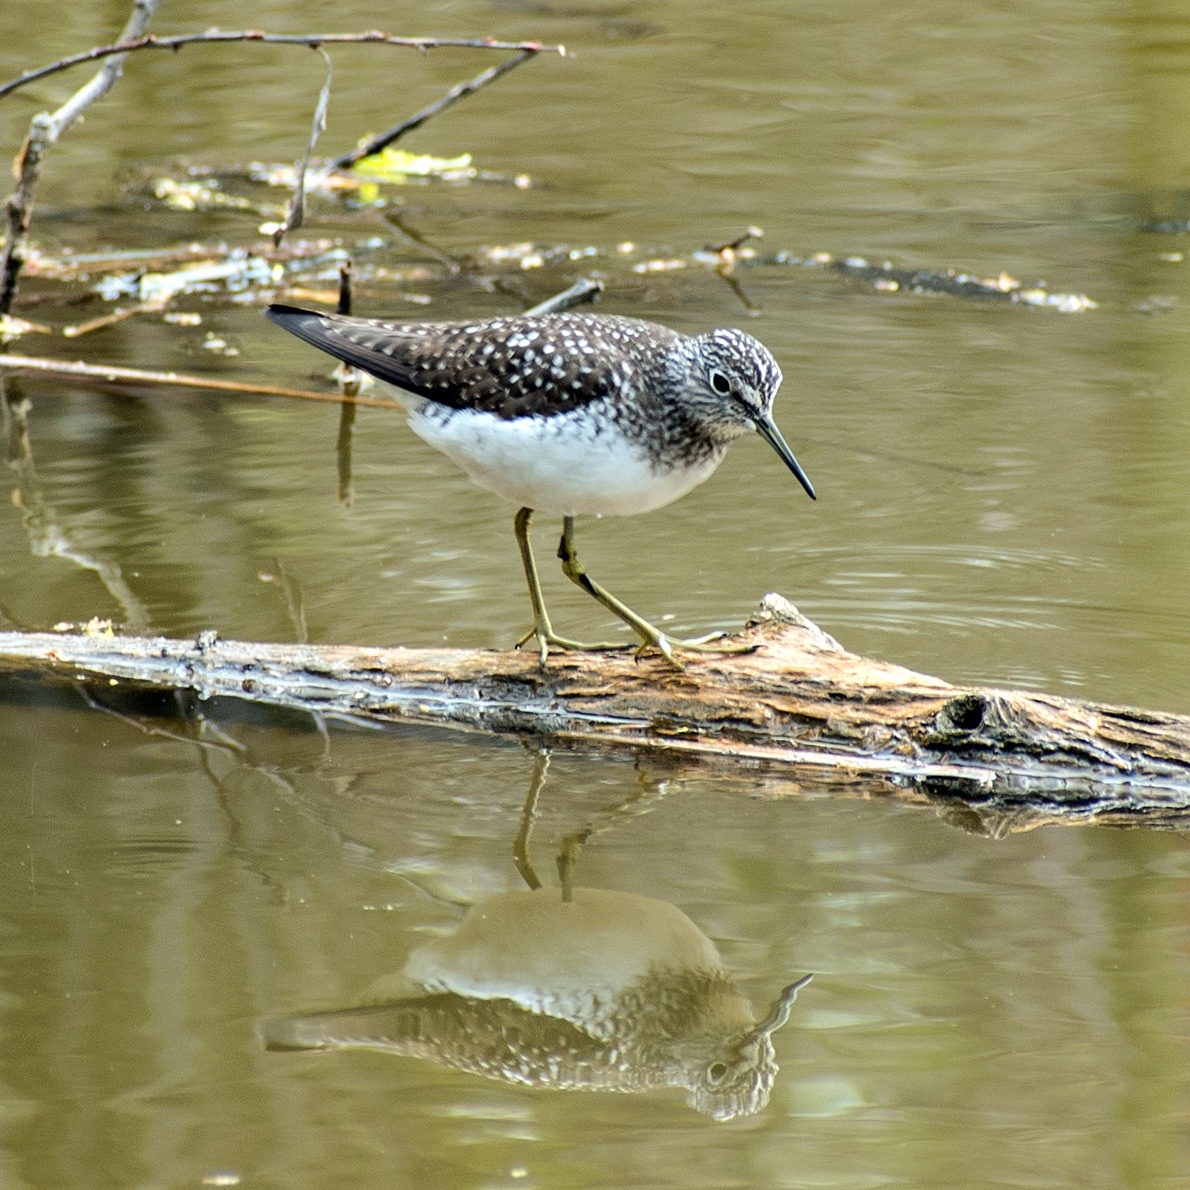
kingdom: Animalia
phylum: Chordata
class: Aves
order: Charadriiformes
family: Scolopacidae
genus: Tringa
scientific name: Tringa solitaria
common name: Solitary sandpiper
